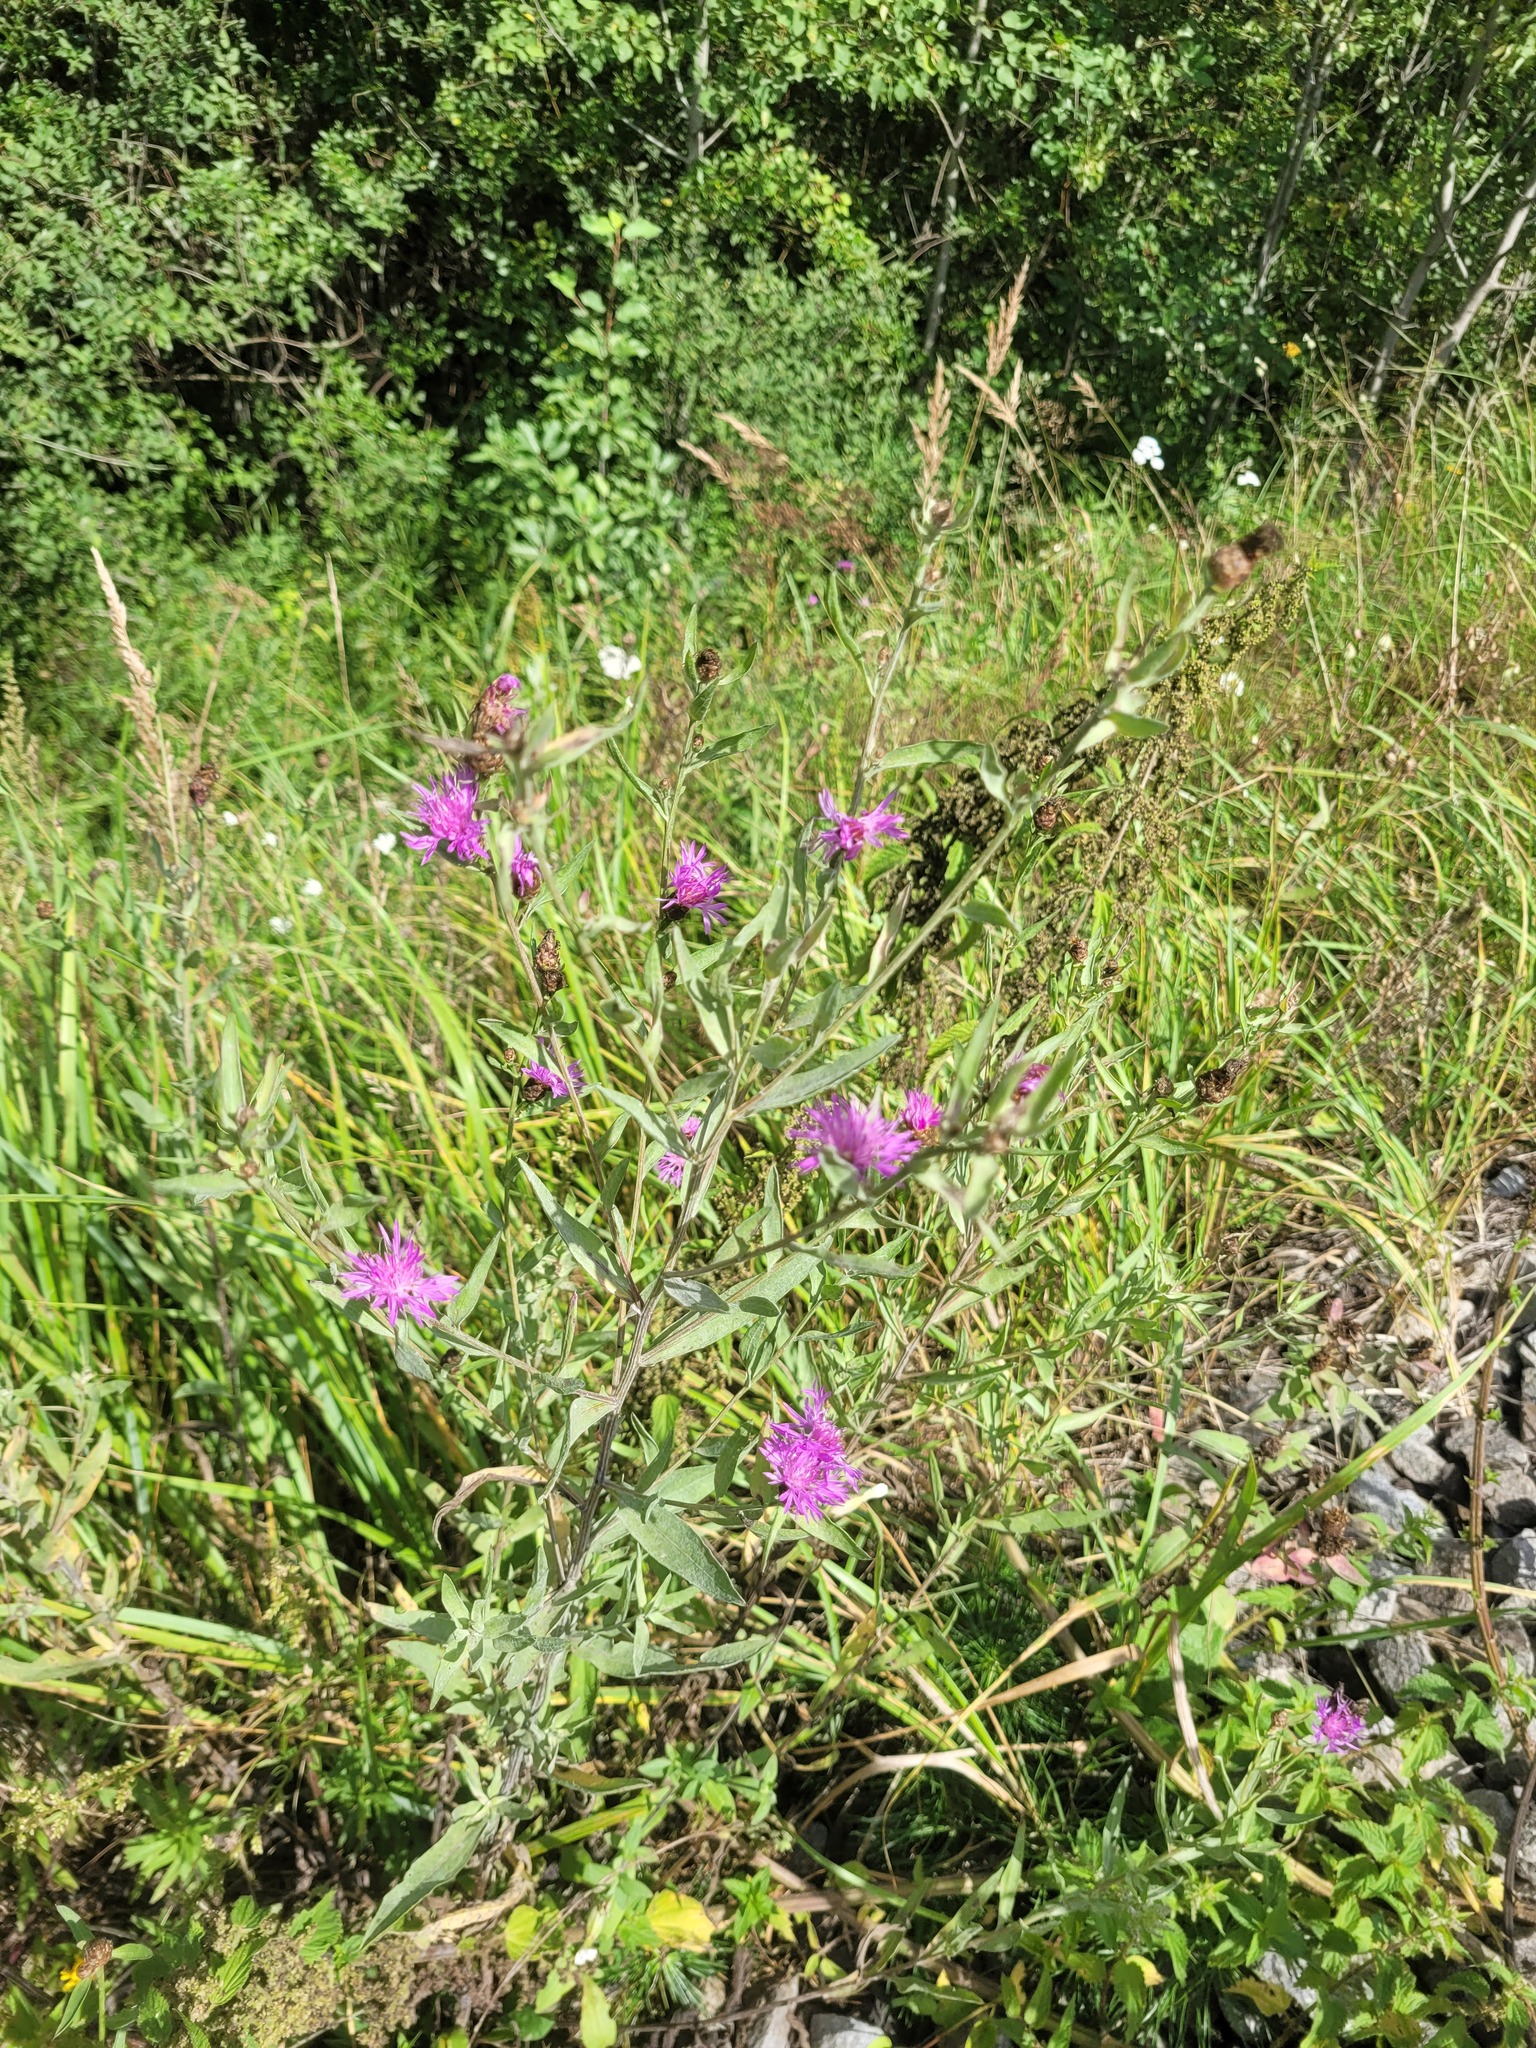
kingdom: Plantae
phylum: Tracheophyta
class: Magnoliopsida
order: Asterales
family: Asteraceae
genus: Centaurea
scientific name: Centaurea jacea
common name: Brown knapweed
